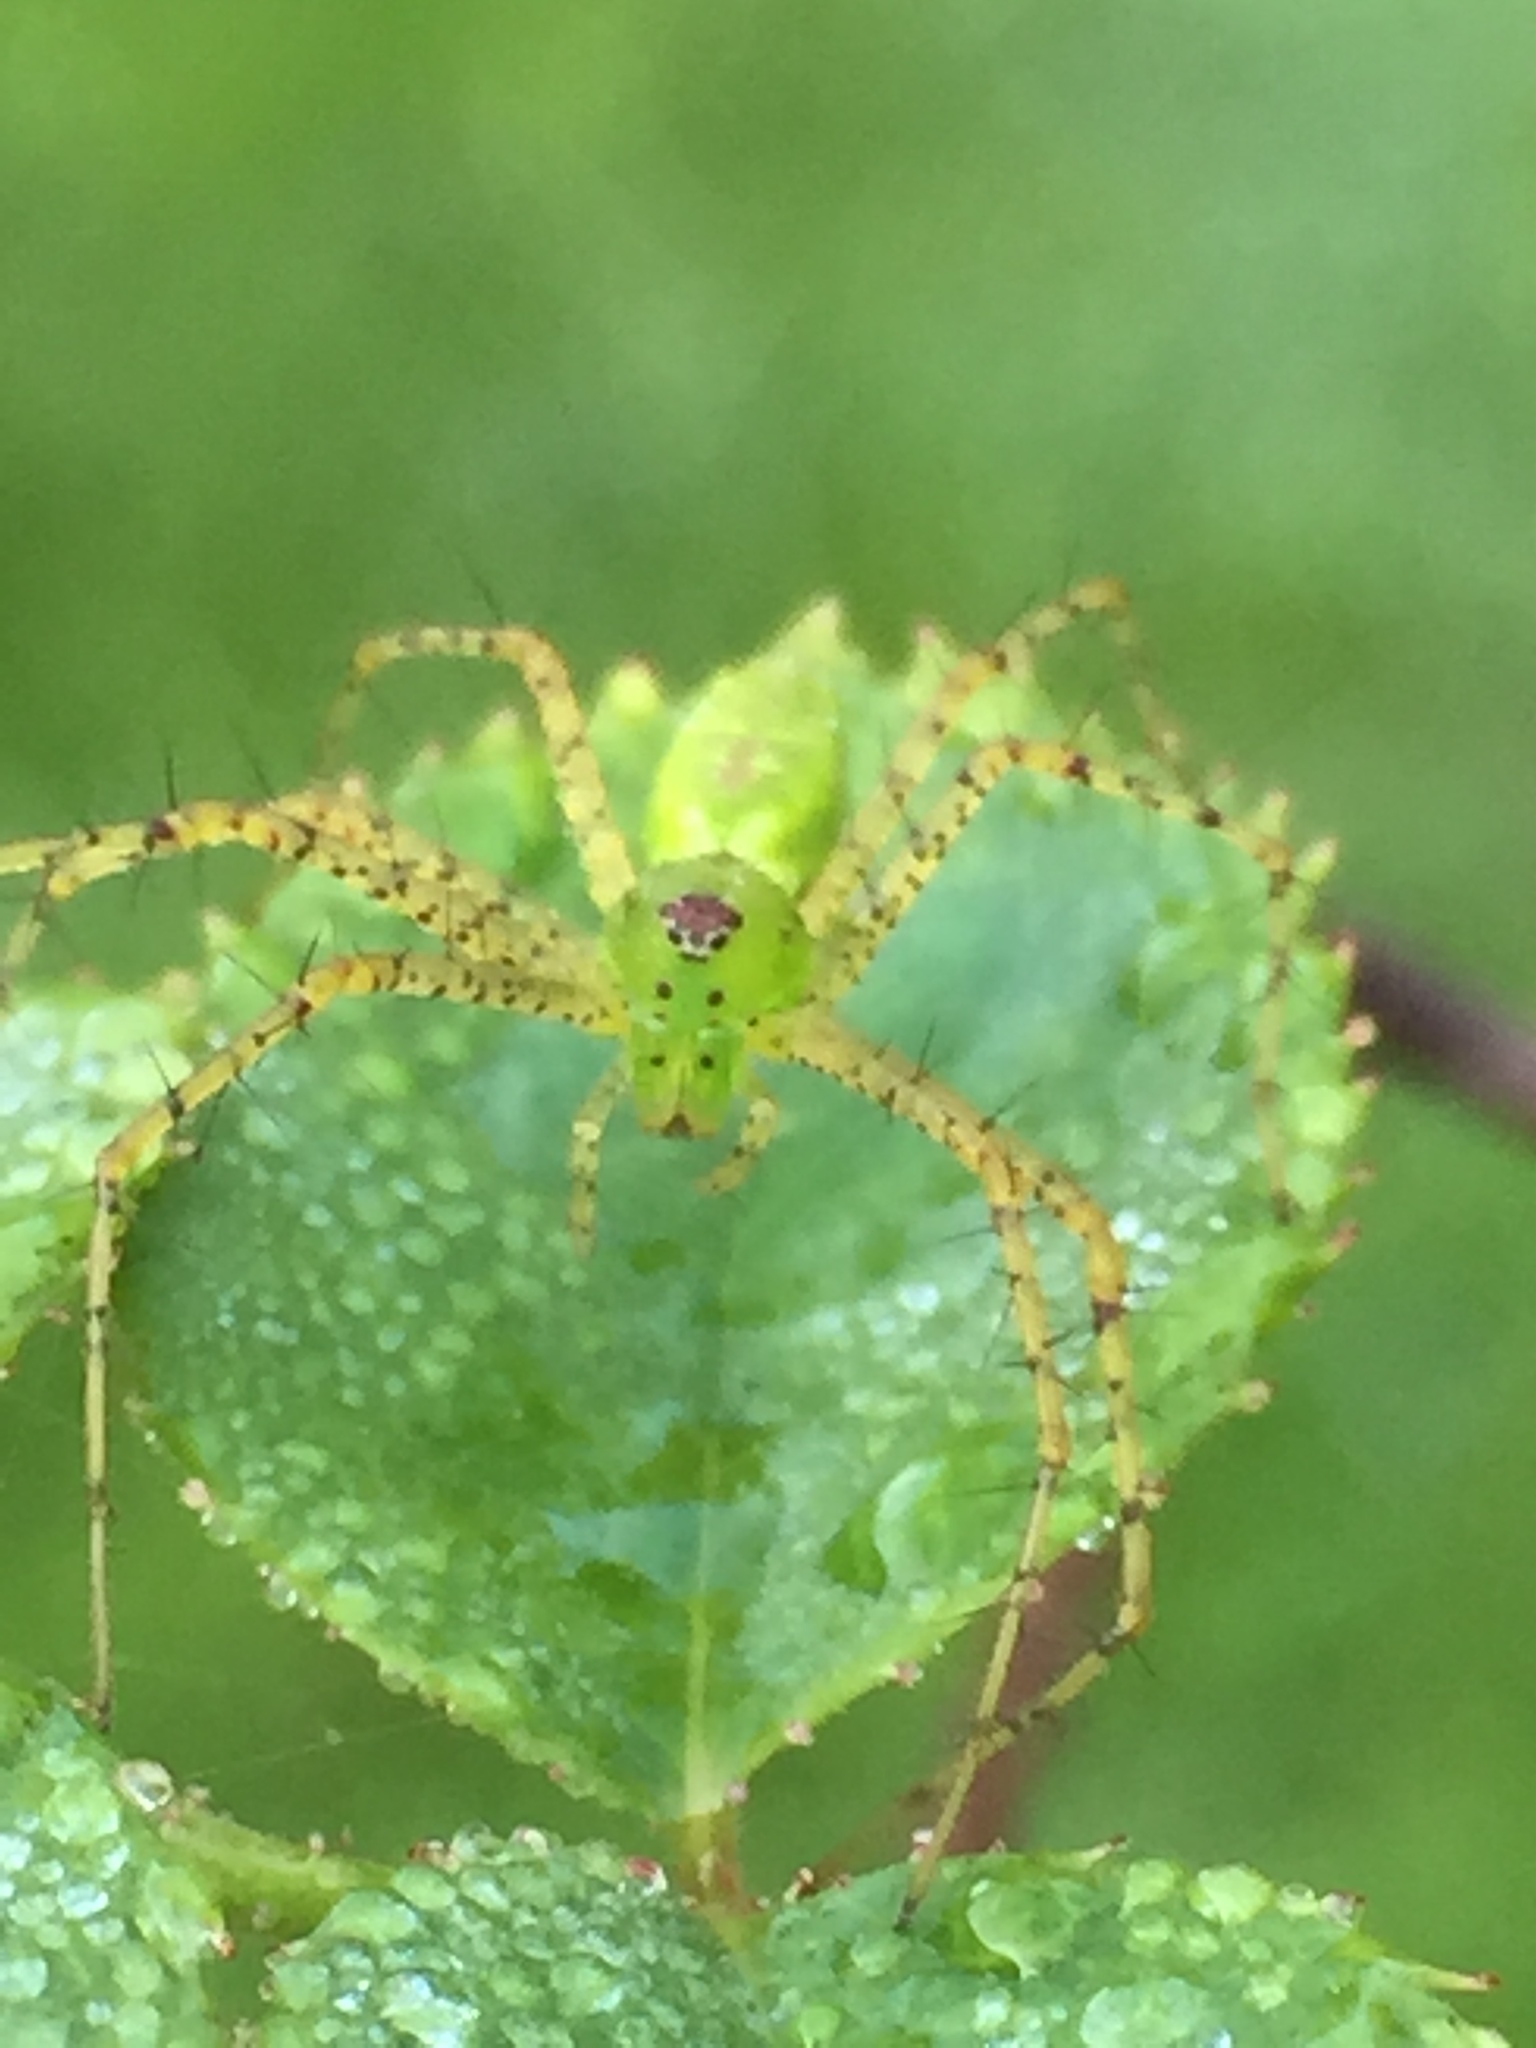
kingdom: Animalia
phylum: Arthropoda
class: Arachnida
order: Araneae
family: Oxyopidae
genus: Peucetia
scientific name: Peucetia viridans
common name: Lynx spiders
